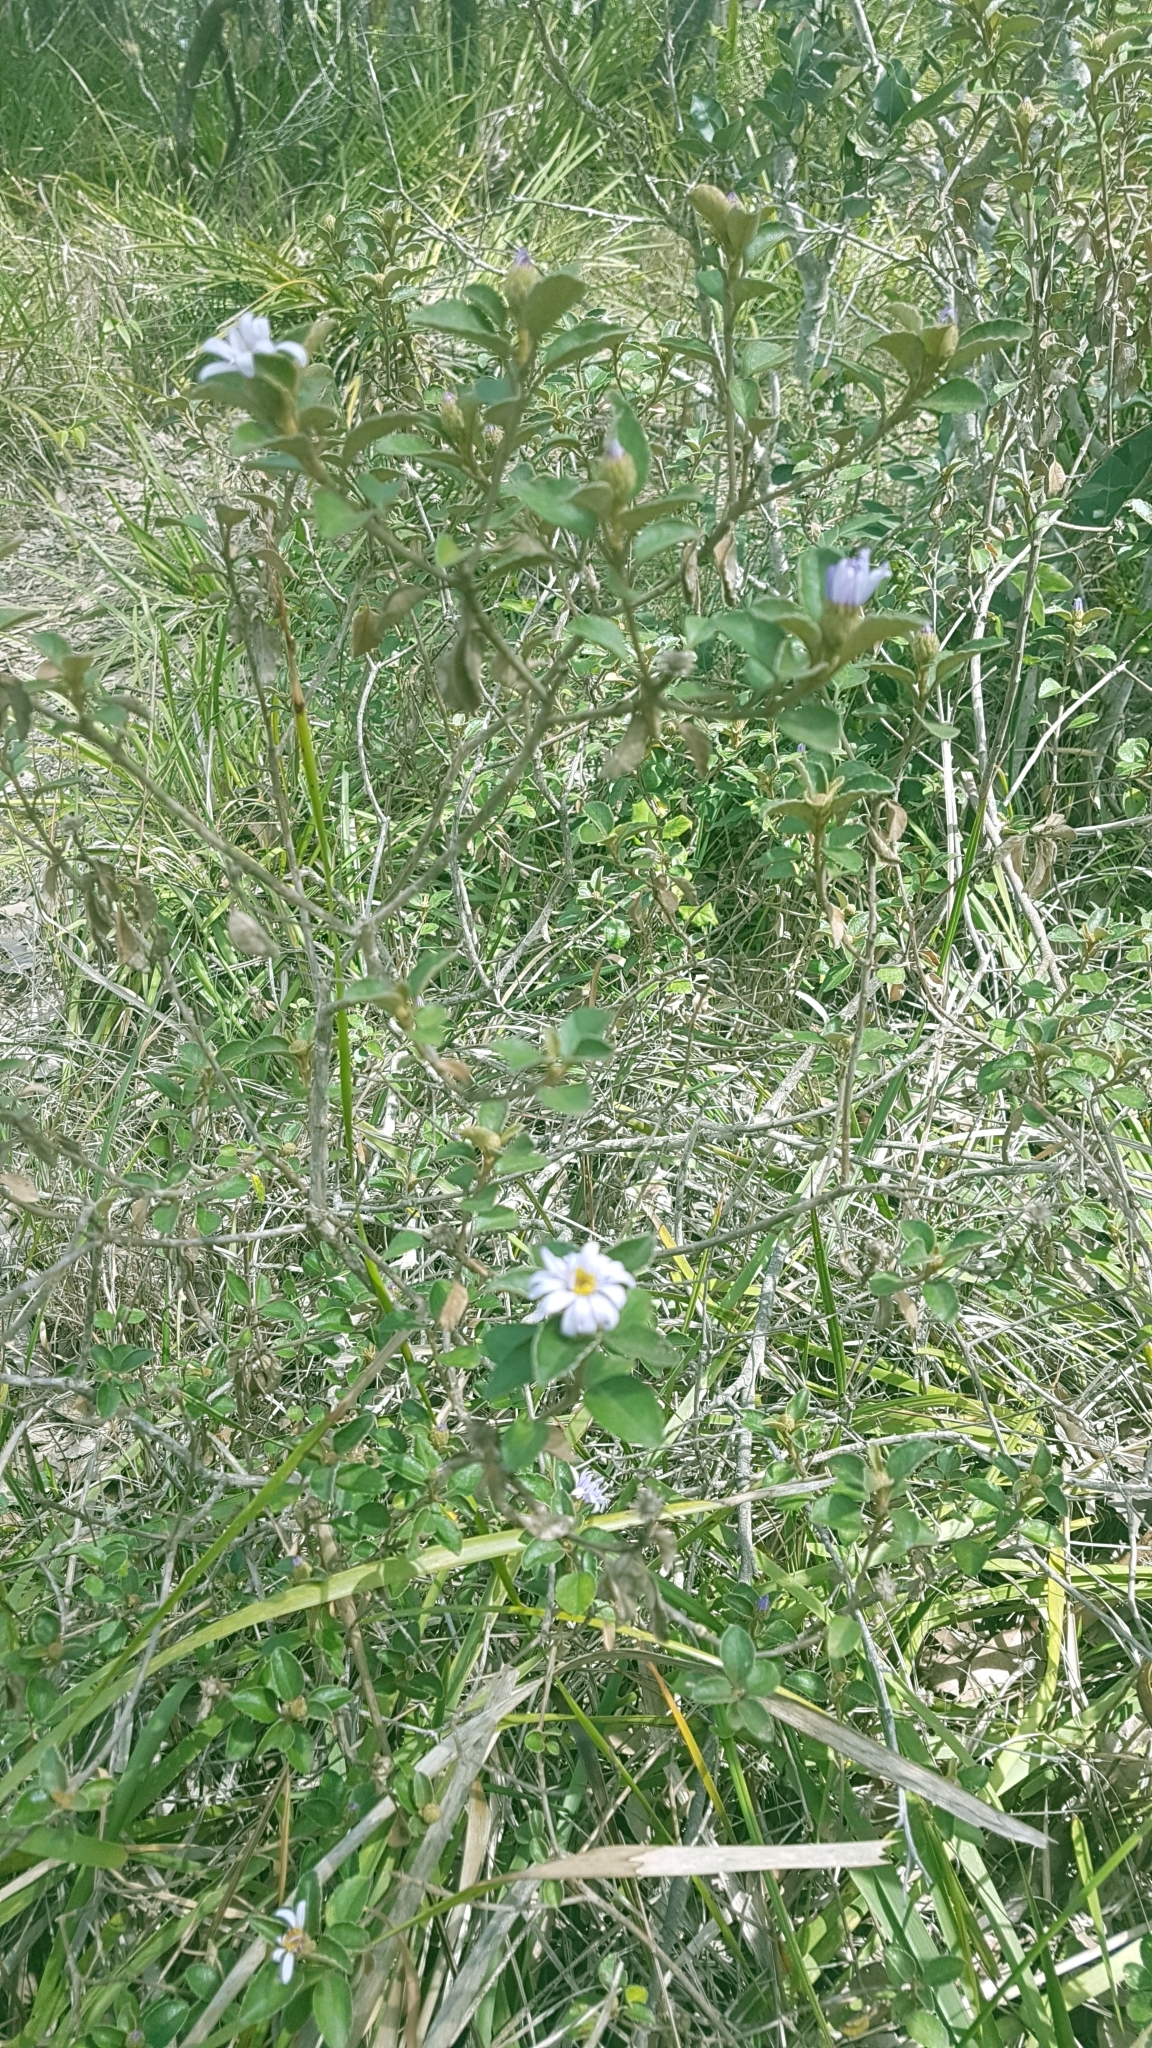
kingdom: Plantae
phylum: Tracheophyta
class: Magnoliopsida
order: Asterales
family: Asteraceae
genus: Olearia
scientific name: Olearia tomentosa
